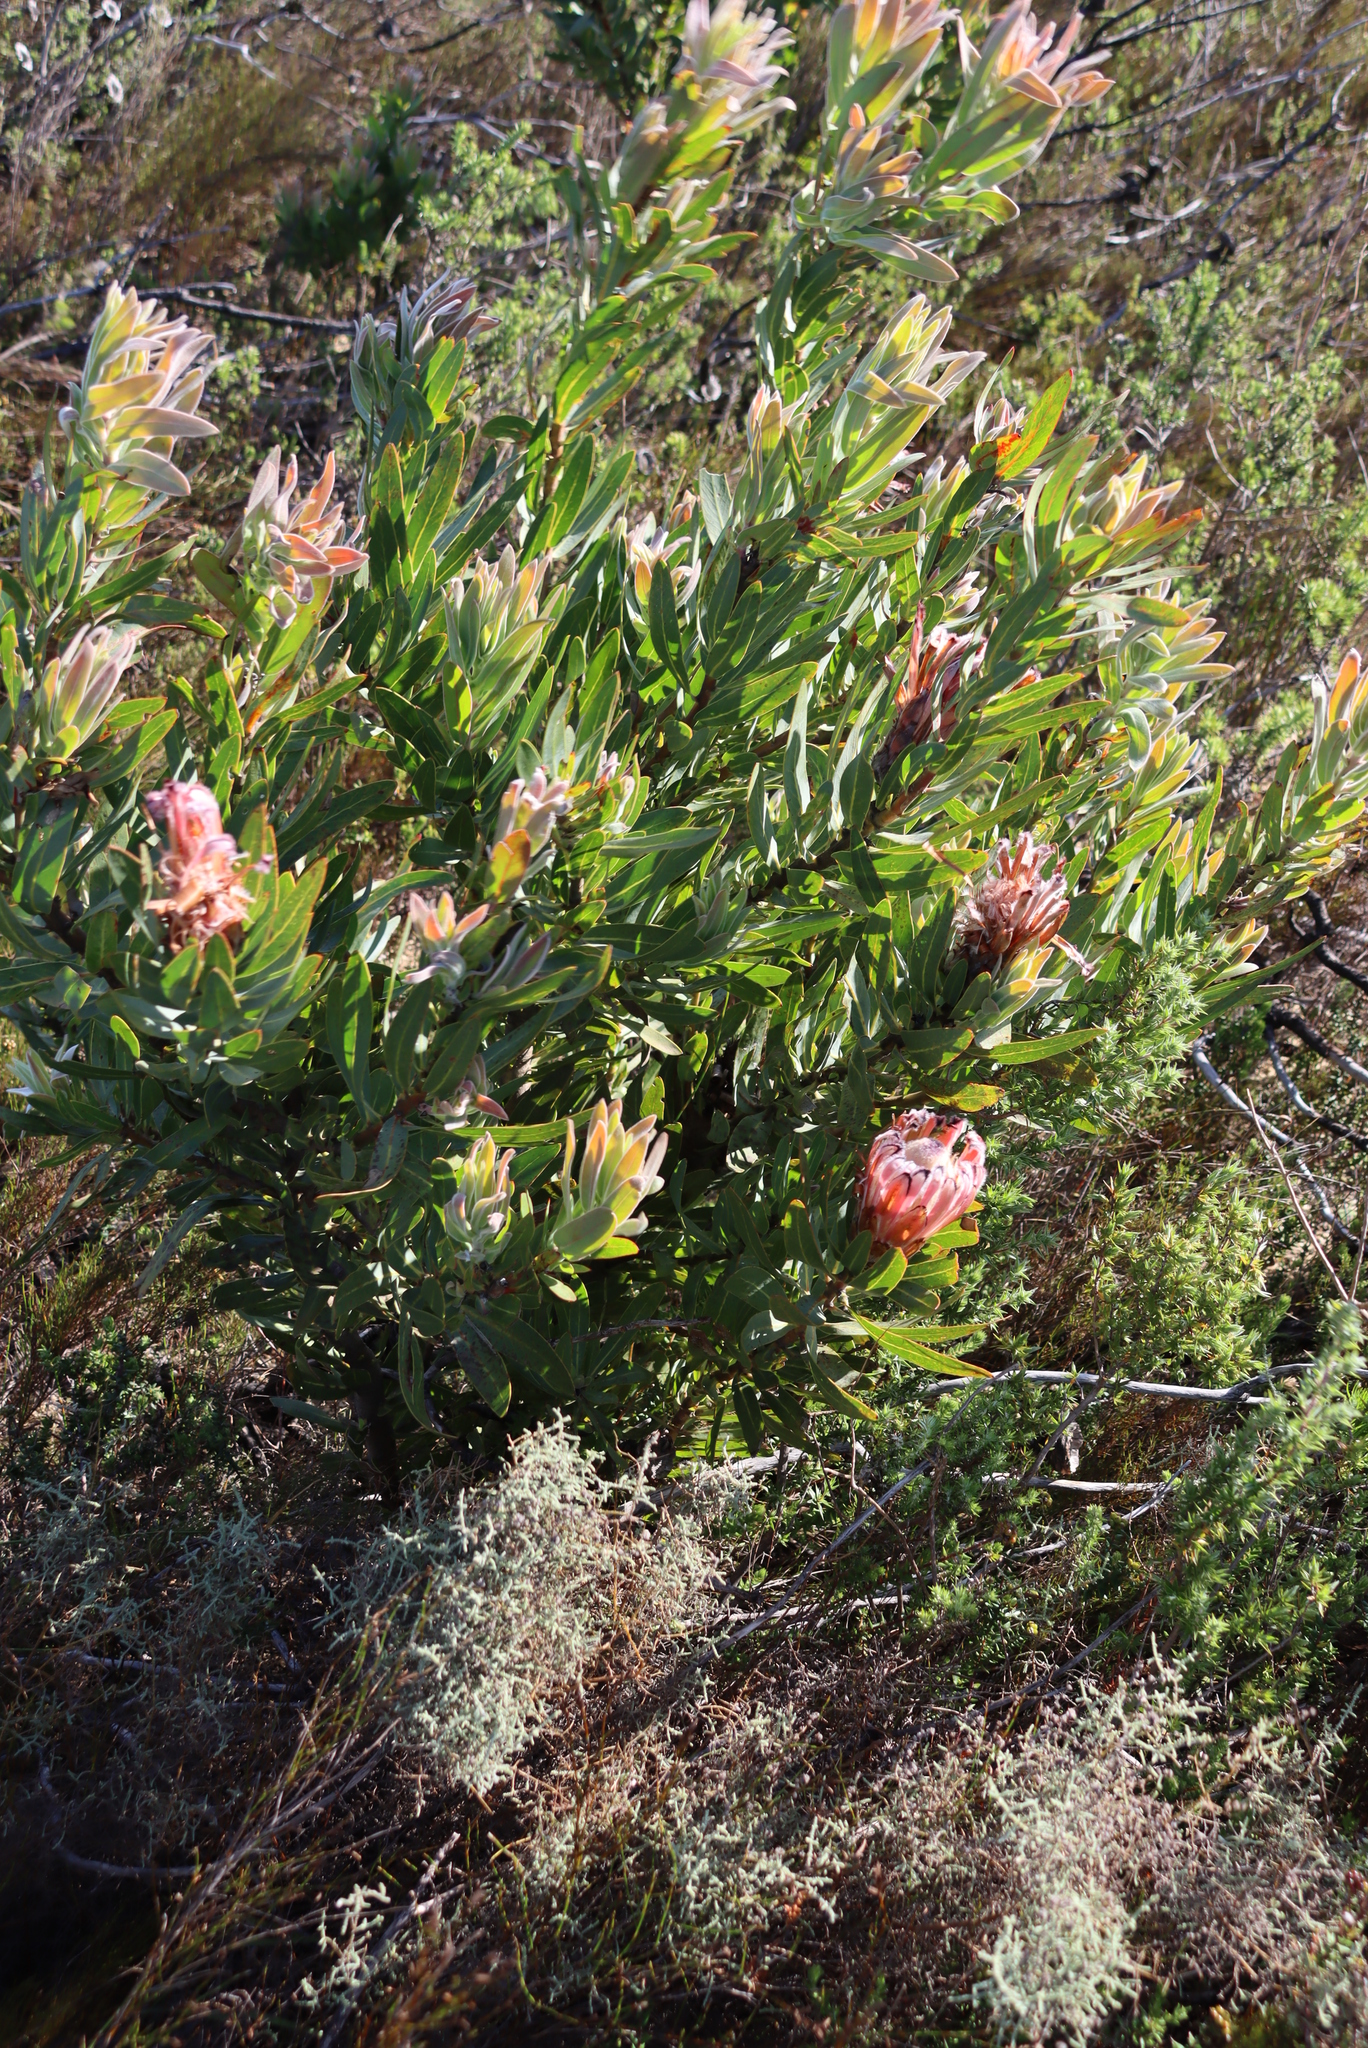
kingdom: Plantae
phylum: Tracheophyta
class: Magnoliopsida
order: Proteales
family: Proteaceae
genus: Protea
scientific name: Protea laurifolia
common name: Grey-leaf sugarbsh
